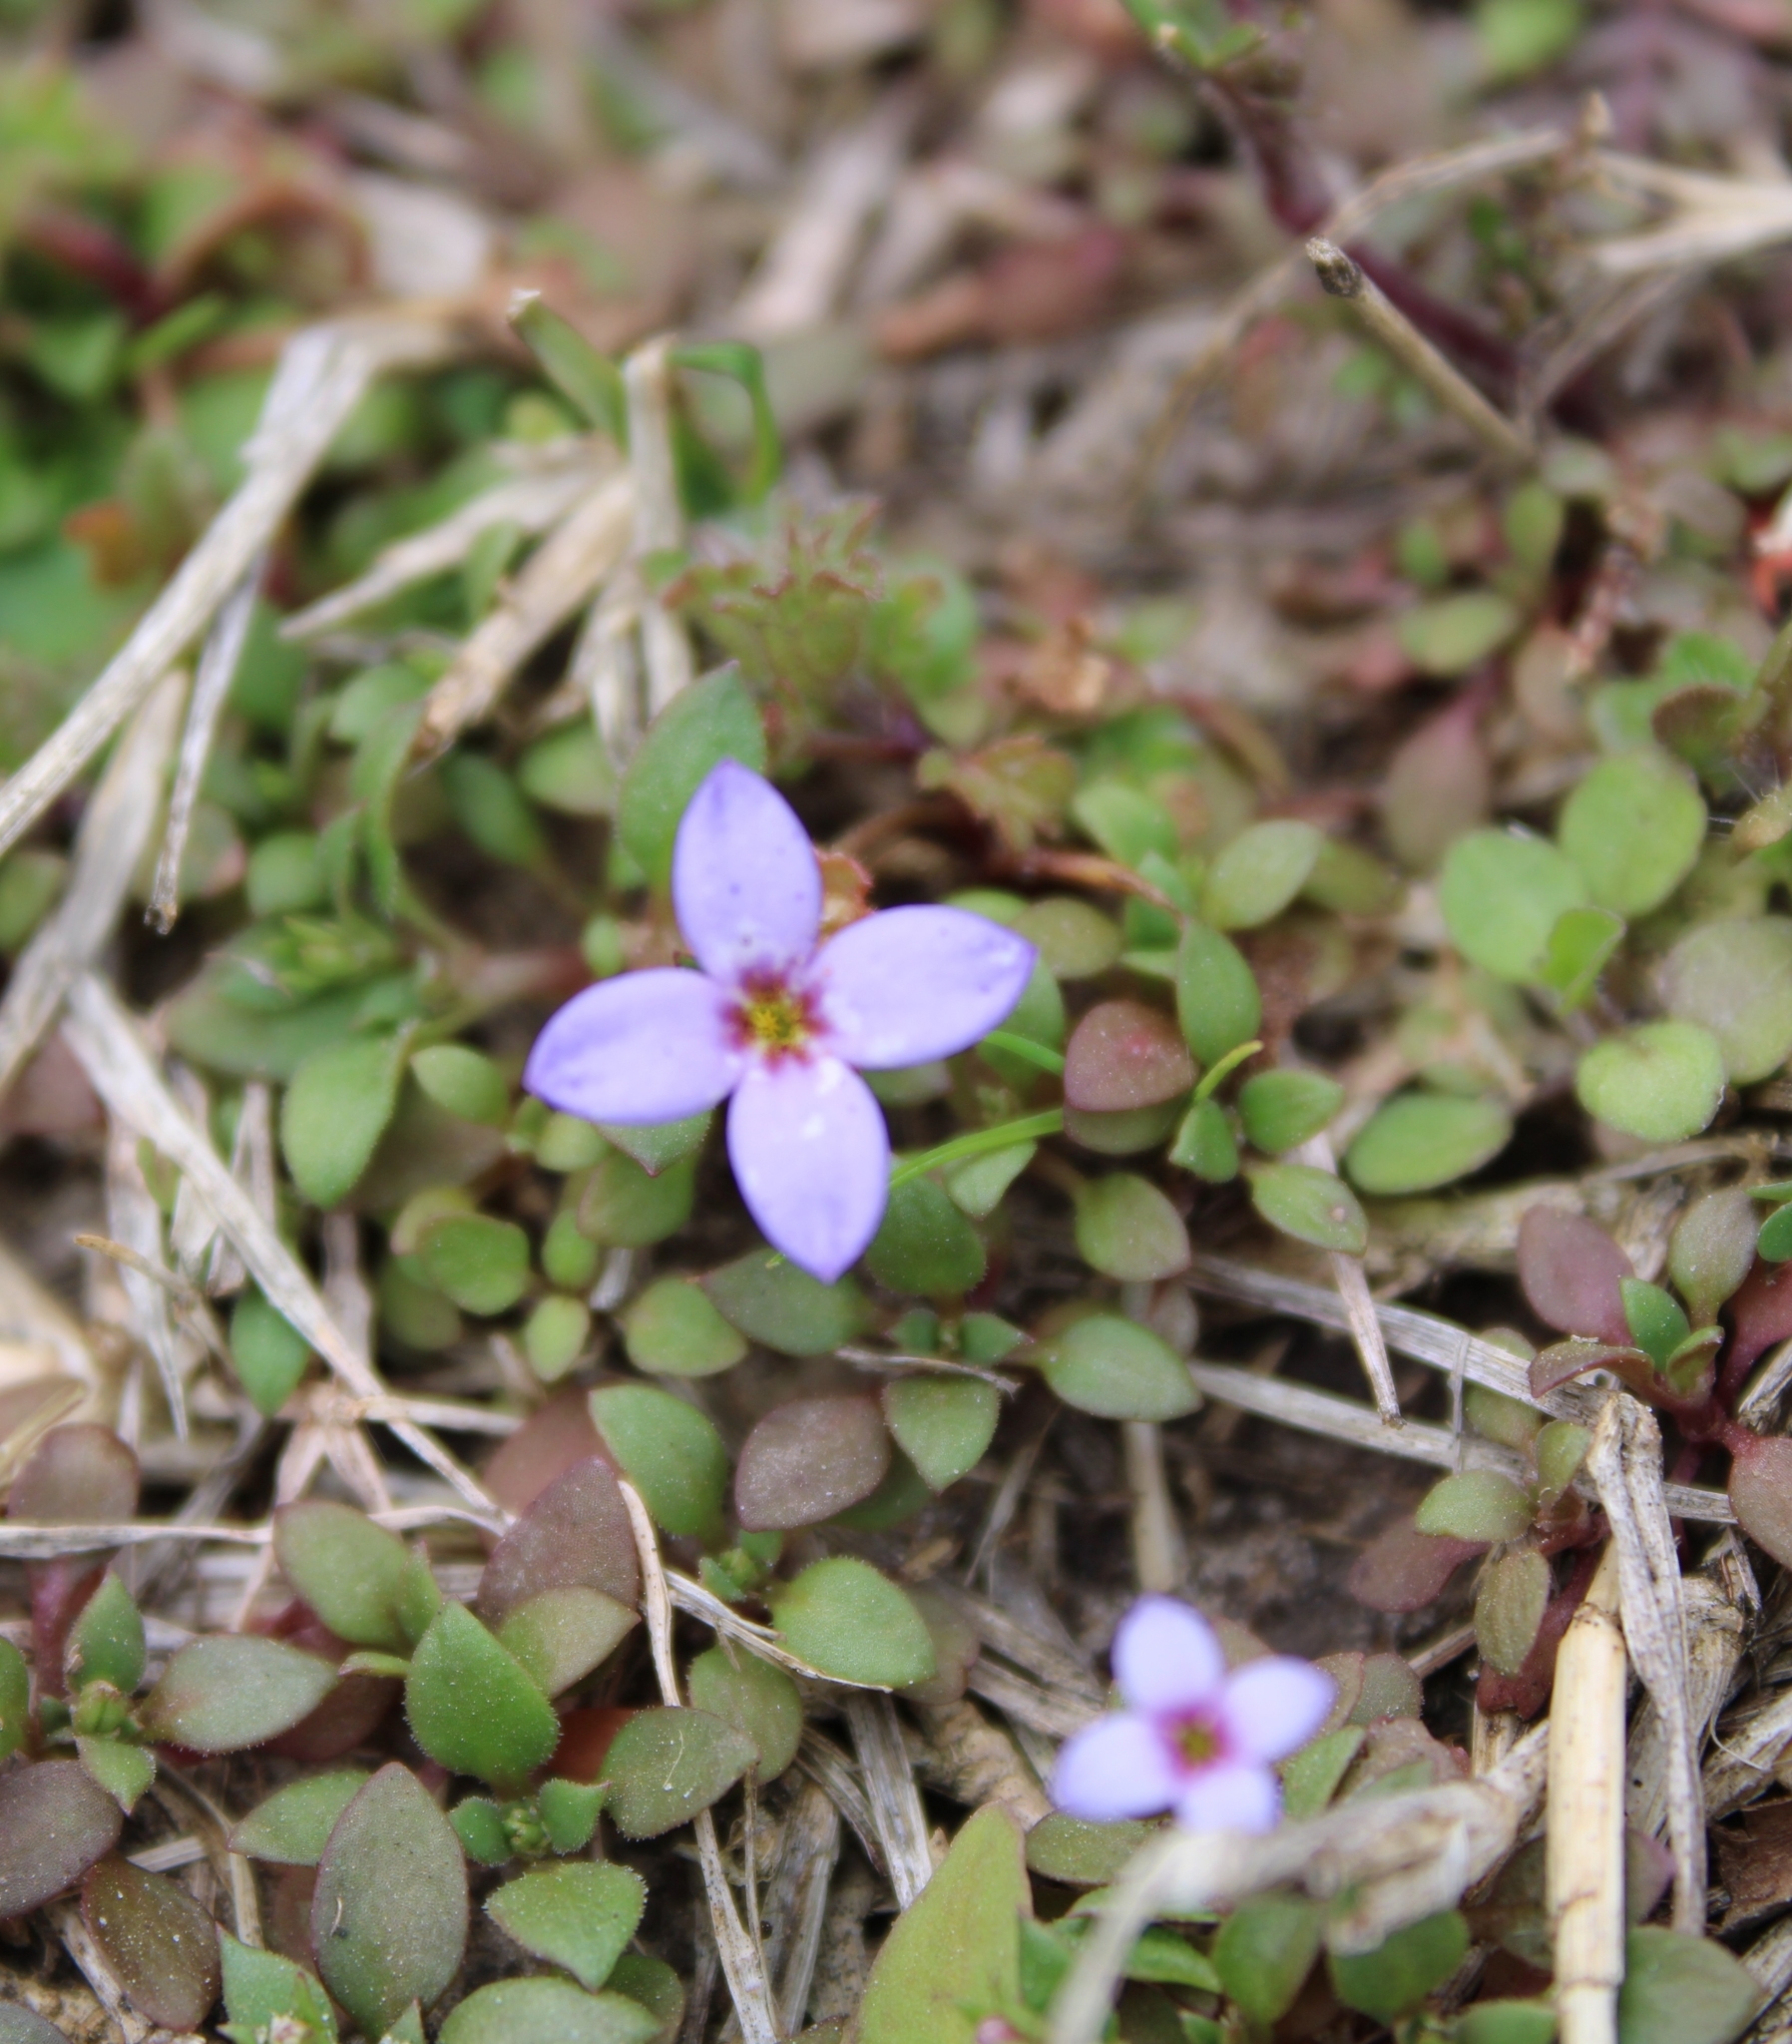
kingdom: Plantae
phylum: Tracheophyta
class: Magnoliopsida
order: Gentianales
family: Rubiaceae
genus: Houstonia
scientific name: Houstonia pusilla
